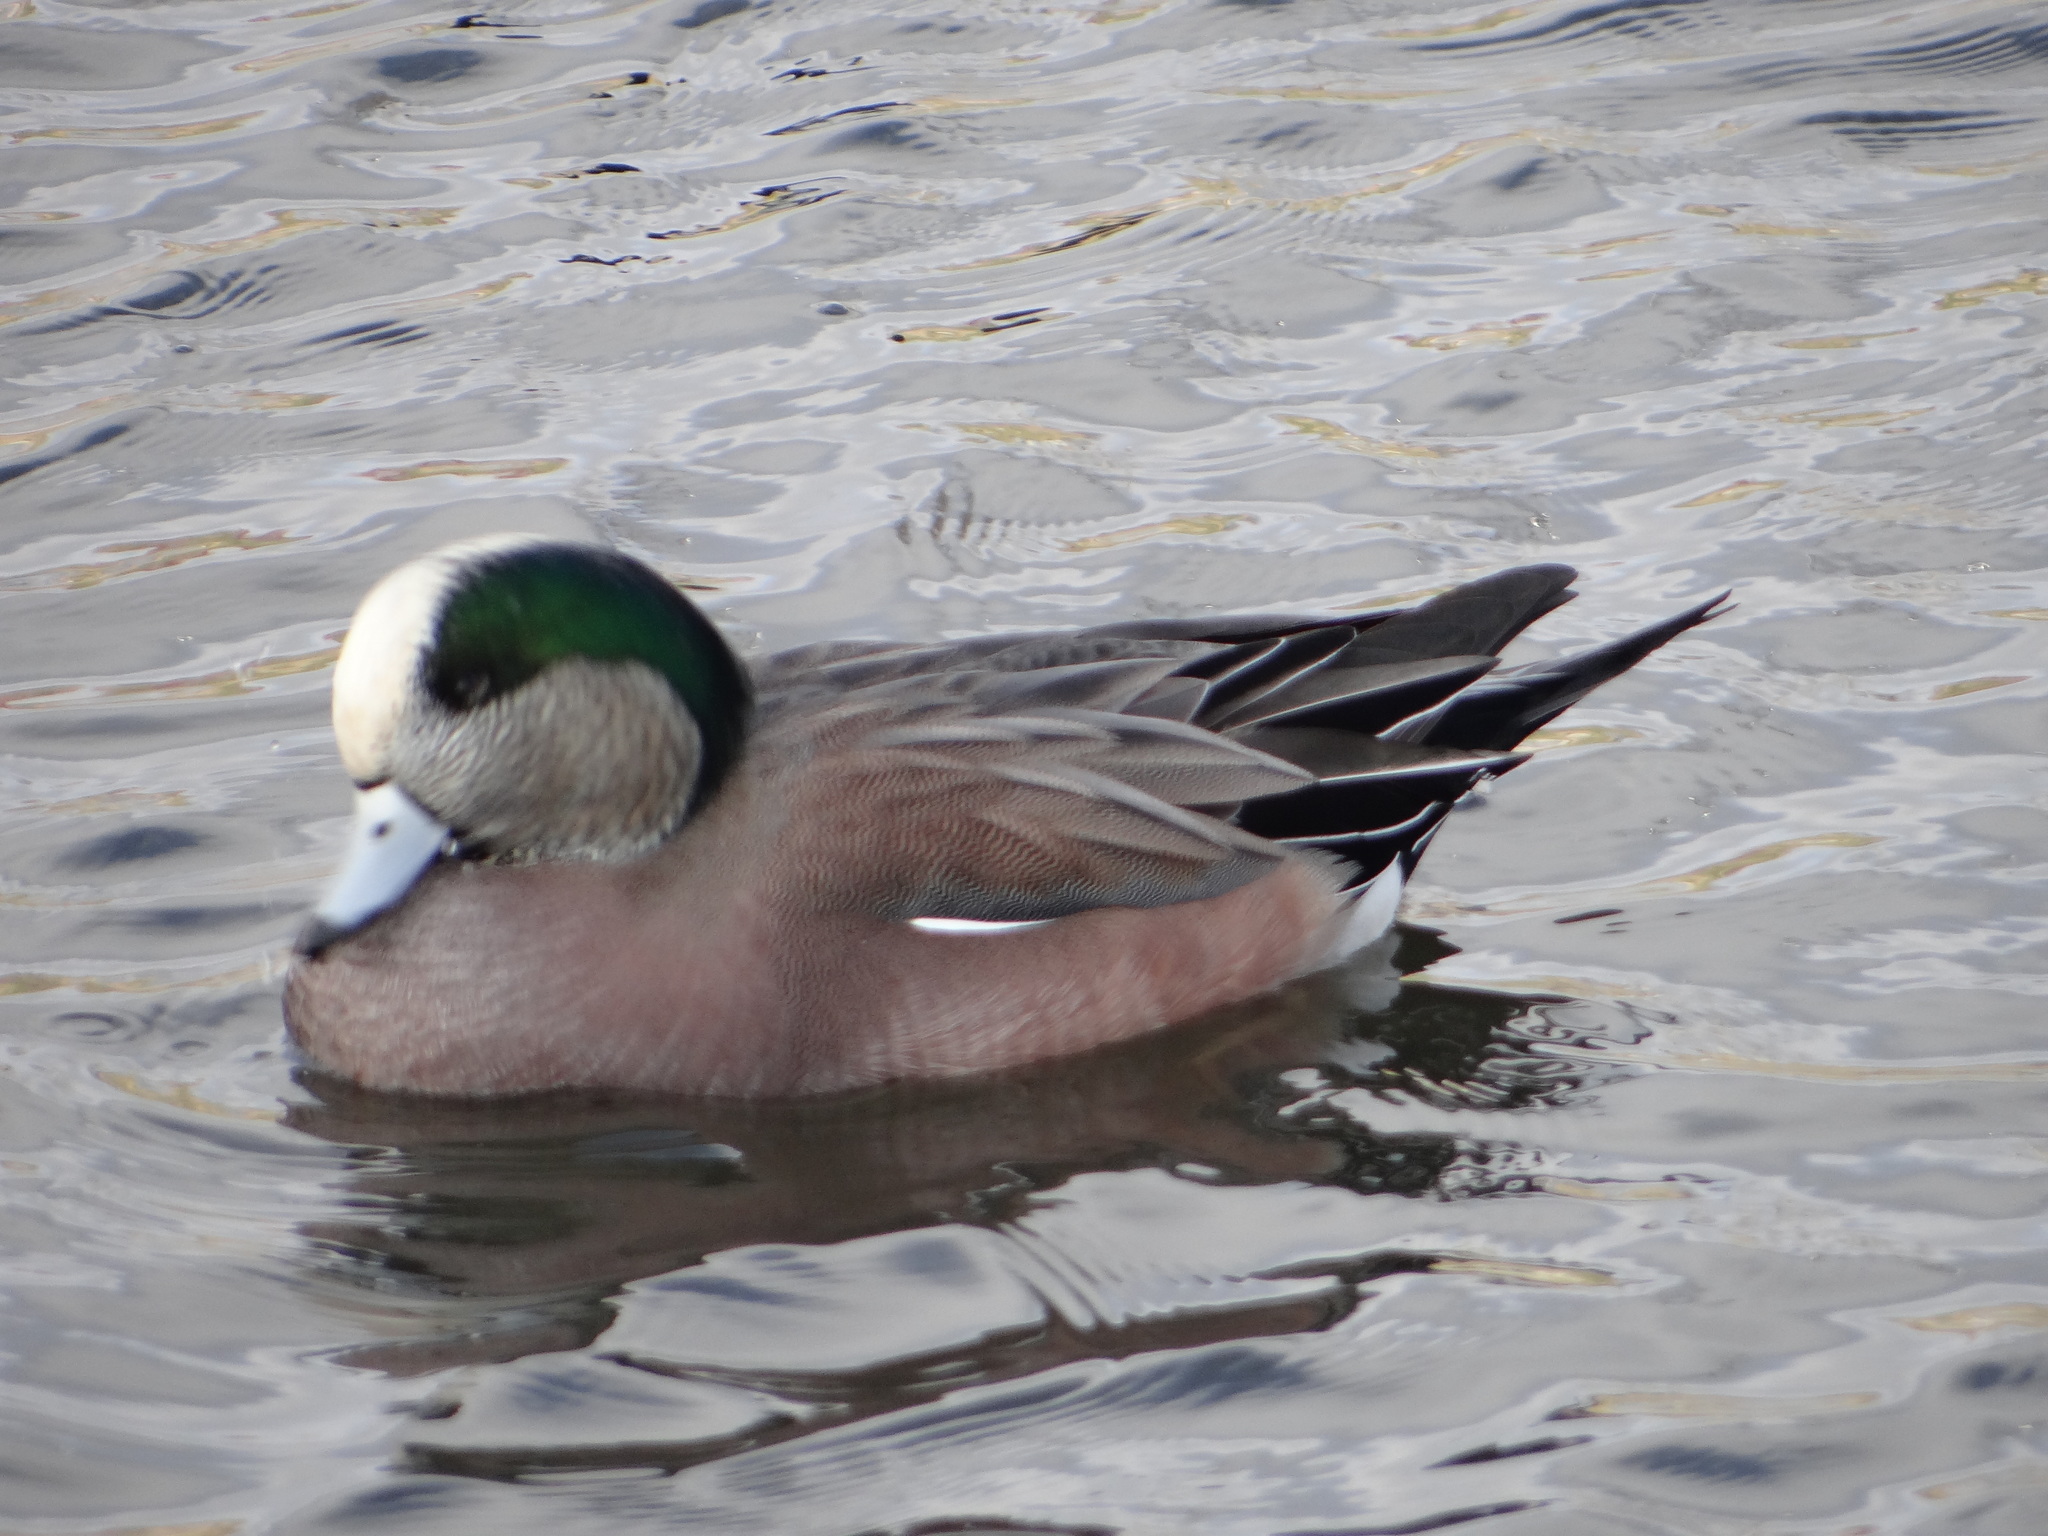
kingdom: Animalia
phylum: Chordata
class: Aves
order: Anseriformes
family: Anatidae
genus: Mareca
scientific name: Mareca americana
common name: American wigeon
